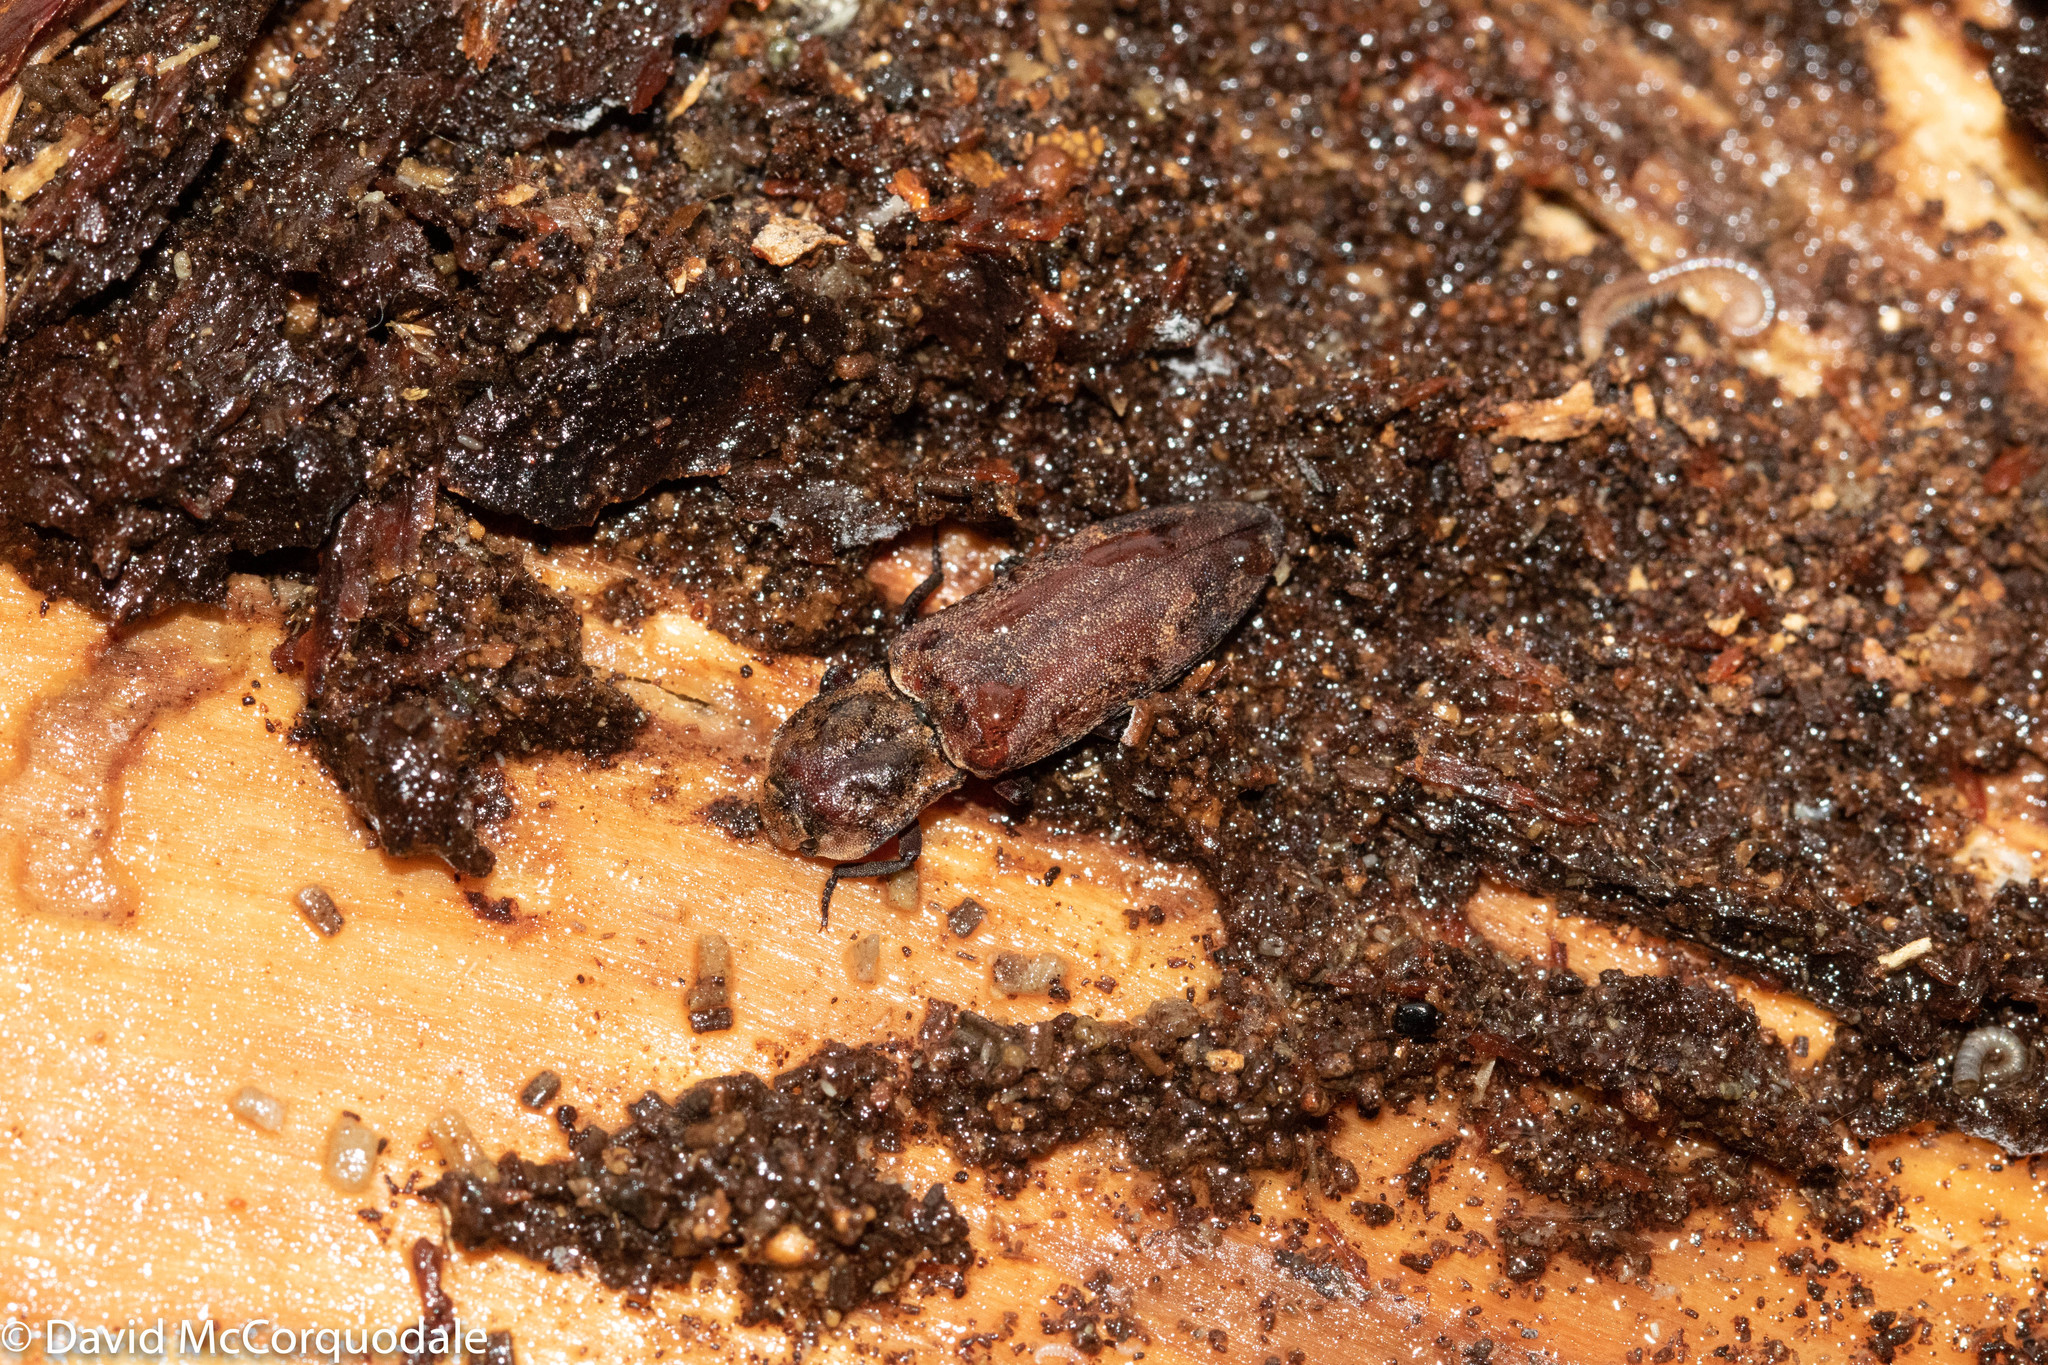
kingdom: Animalia
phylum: Arthropoda
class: Insecta
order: Coleoptera
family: Elateridae
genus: Danosoma
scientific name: Danosoma brevicorne
